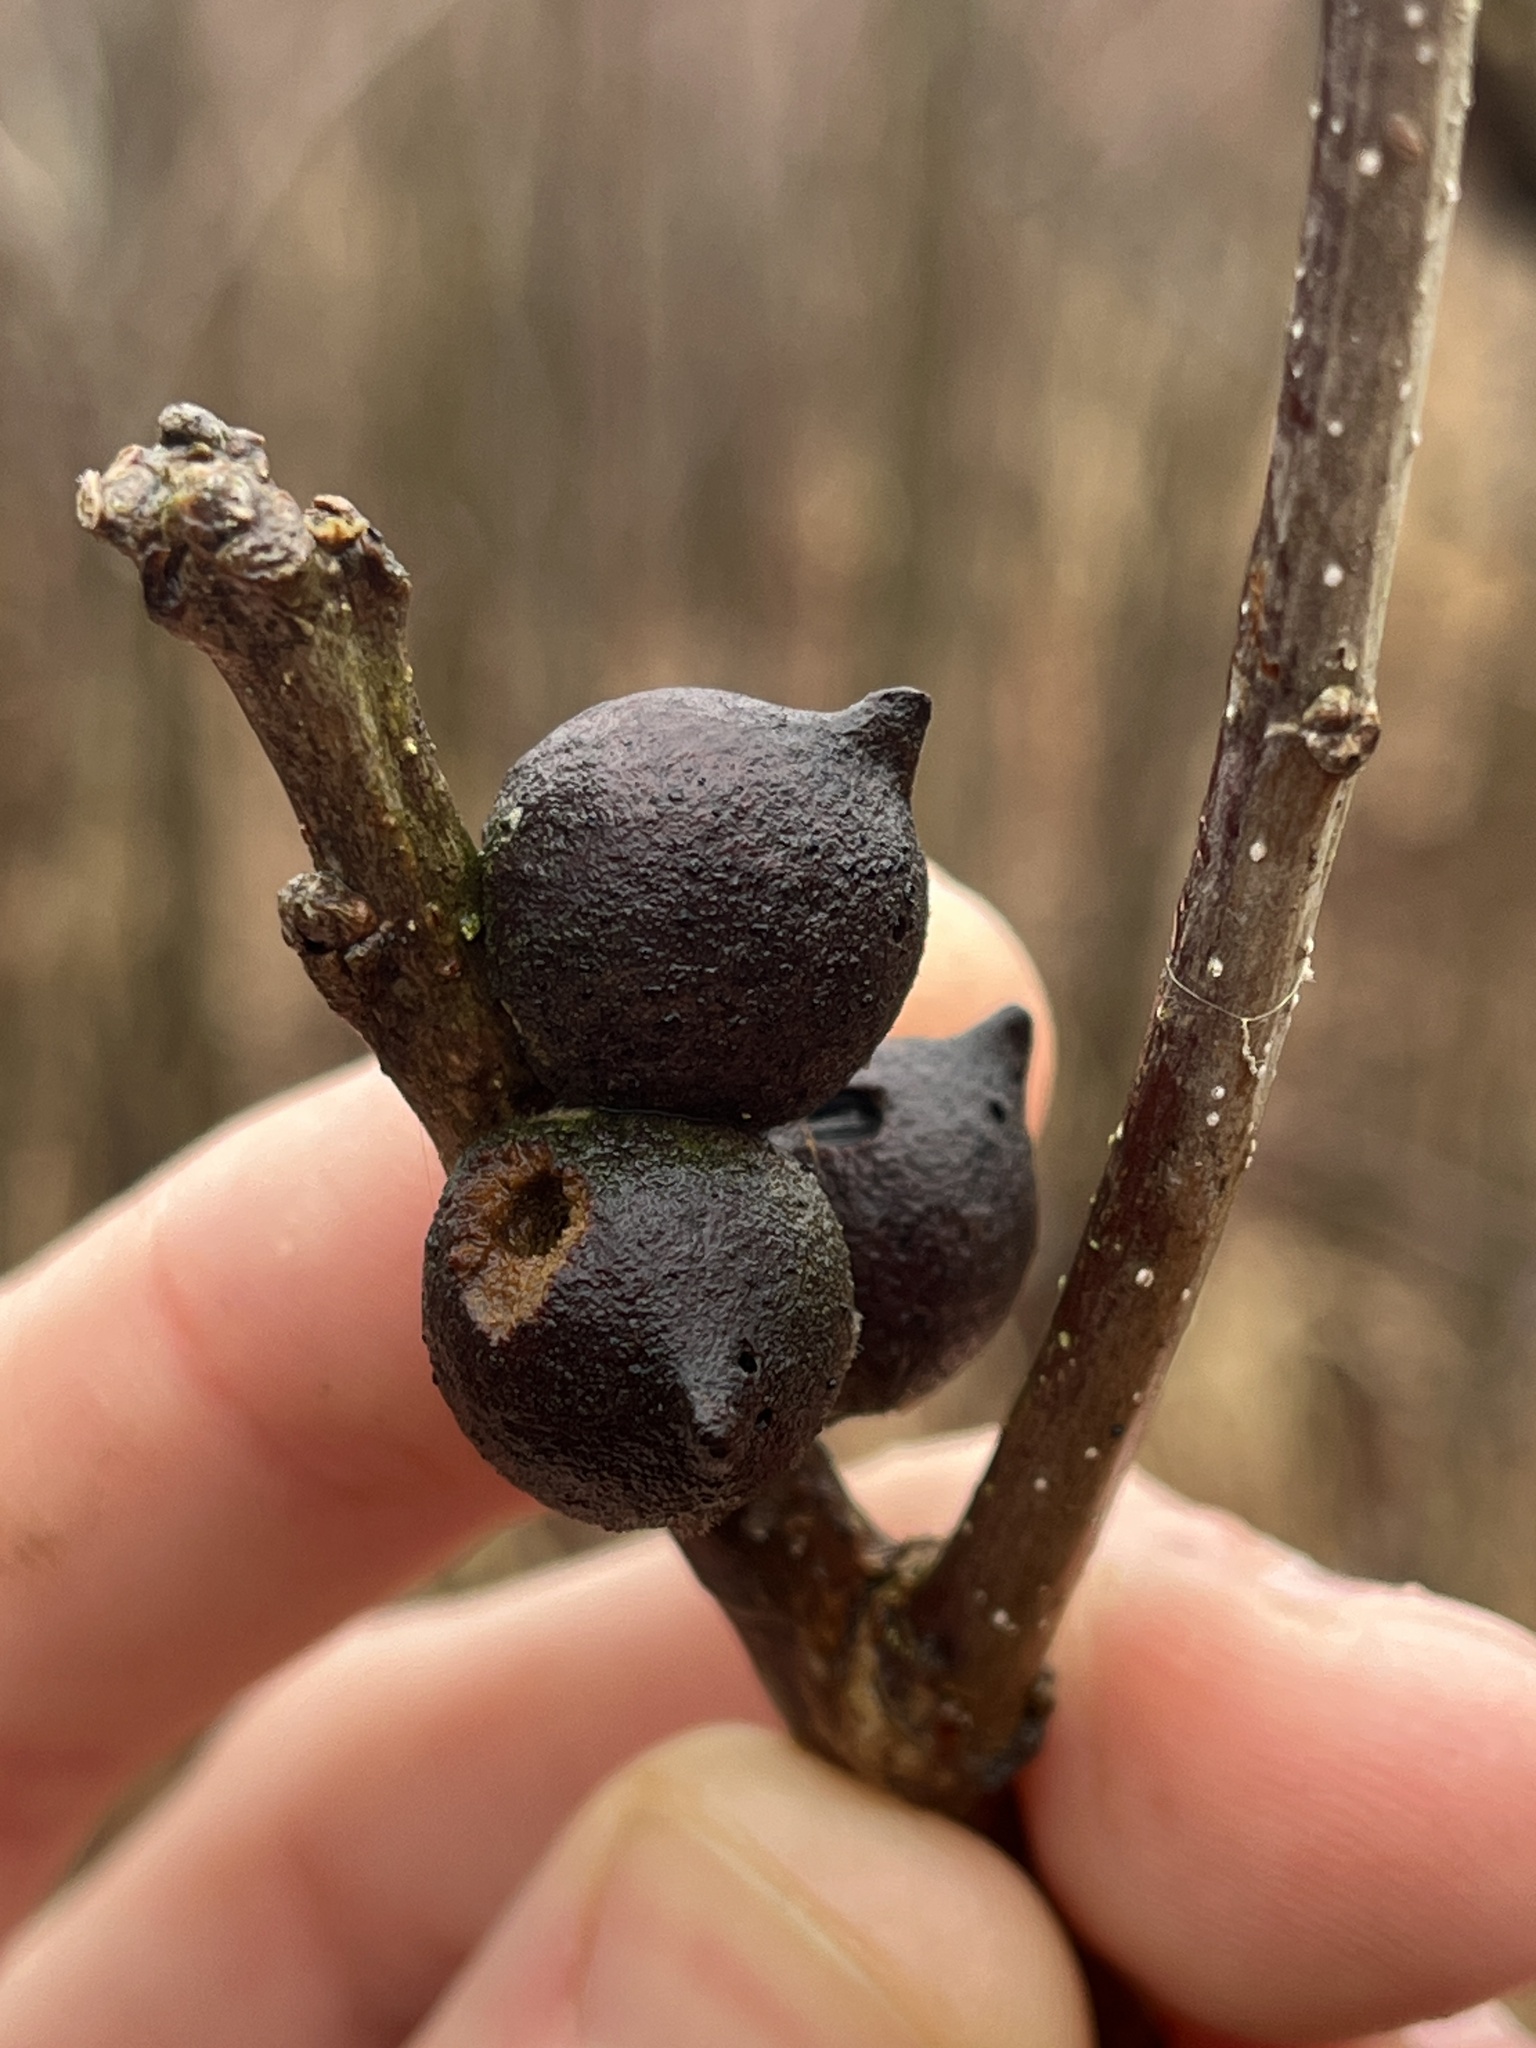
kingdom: Animalia
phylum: Arthropoda
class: Insecta
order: Hymenoptera
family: Cynipidae
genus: Disholcaspis
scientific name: Disholcaspis
